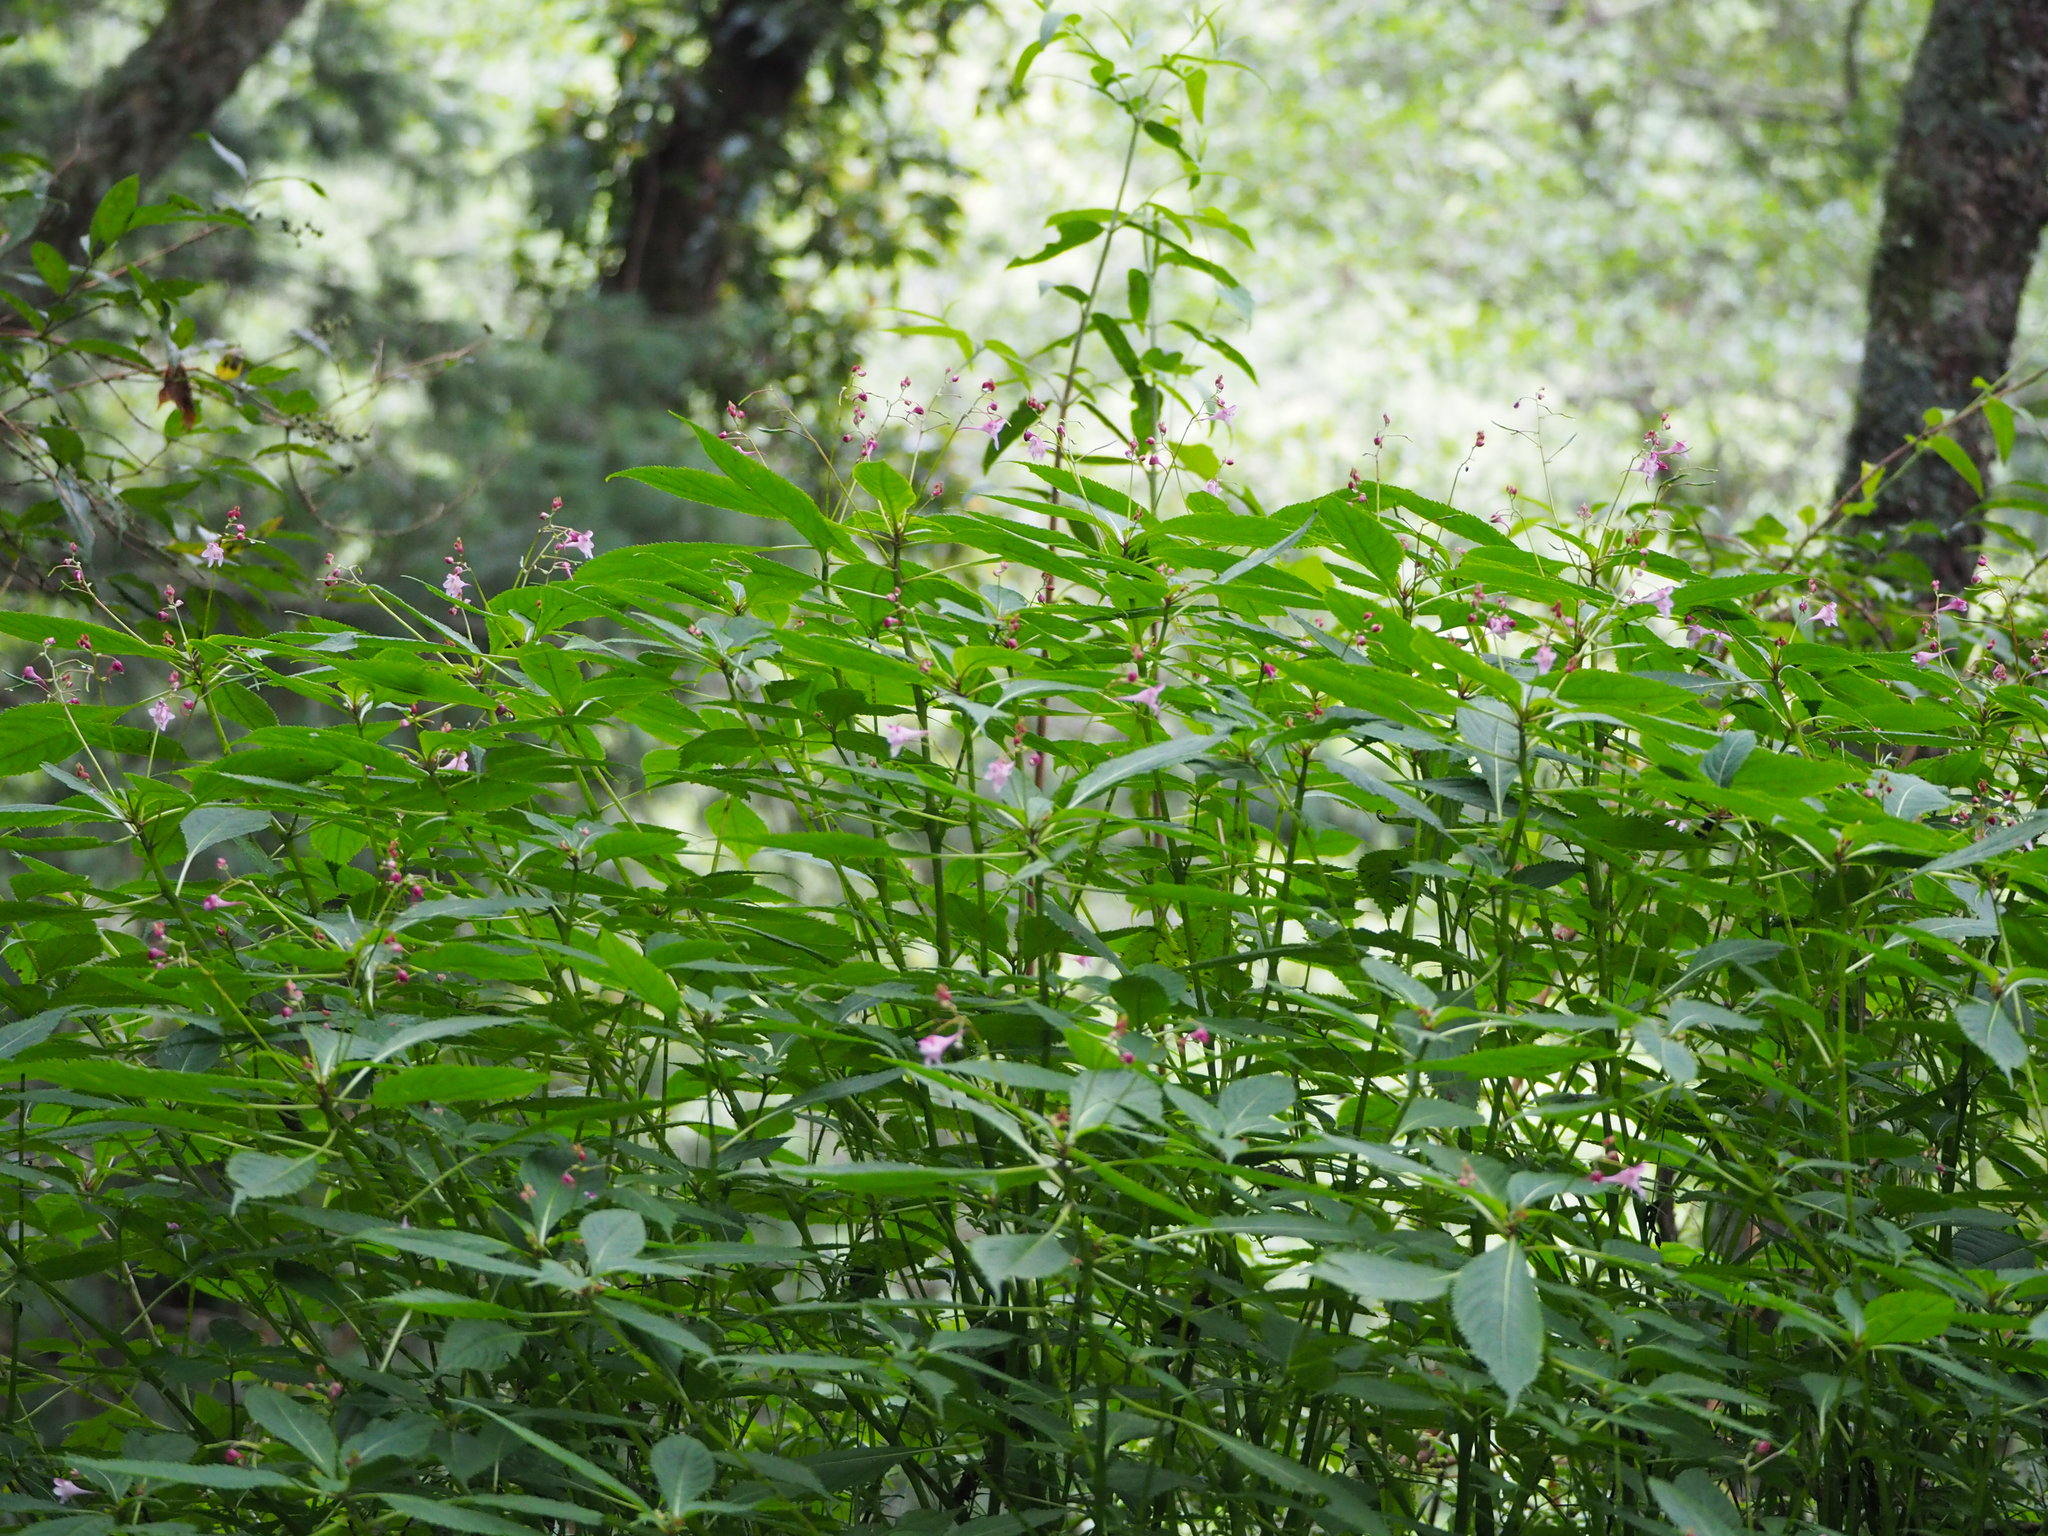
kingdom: Plantae
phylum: Tracheophyta
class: Magnoliopsida
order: Ericales
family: Balsaminaceae
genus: Impatiens
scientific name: Impatiens devolii
